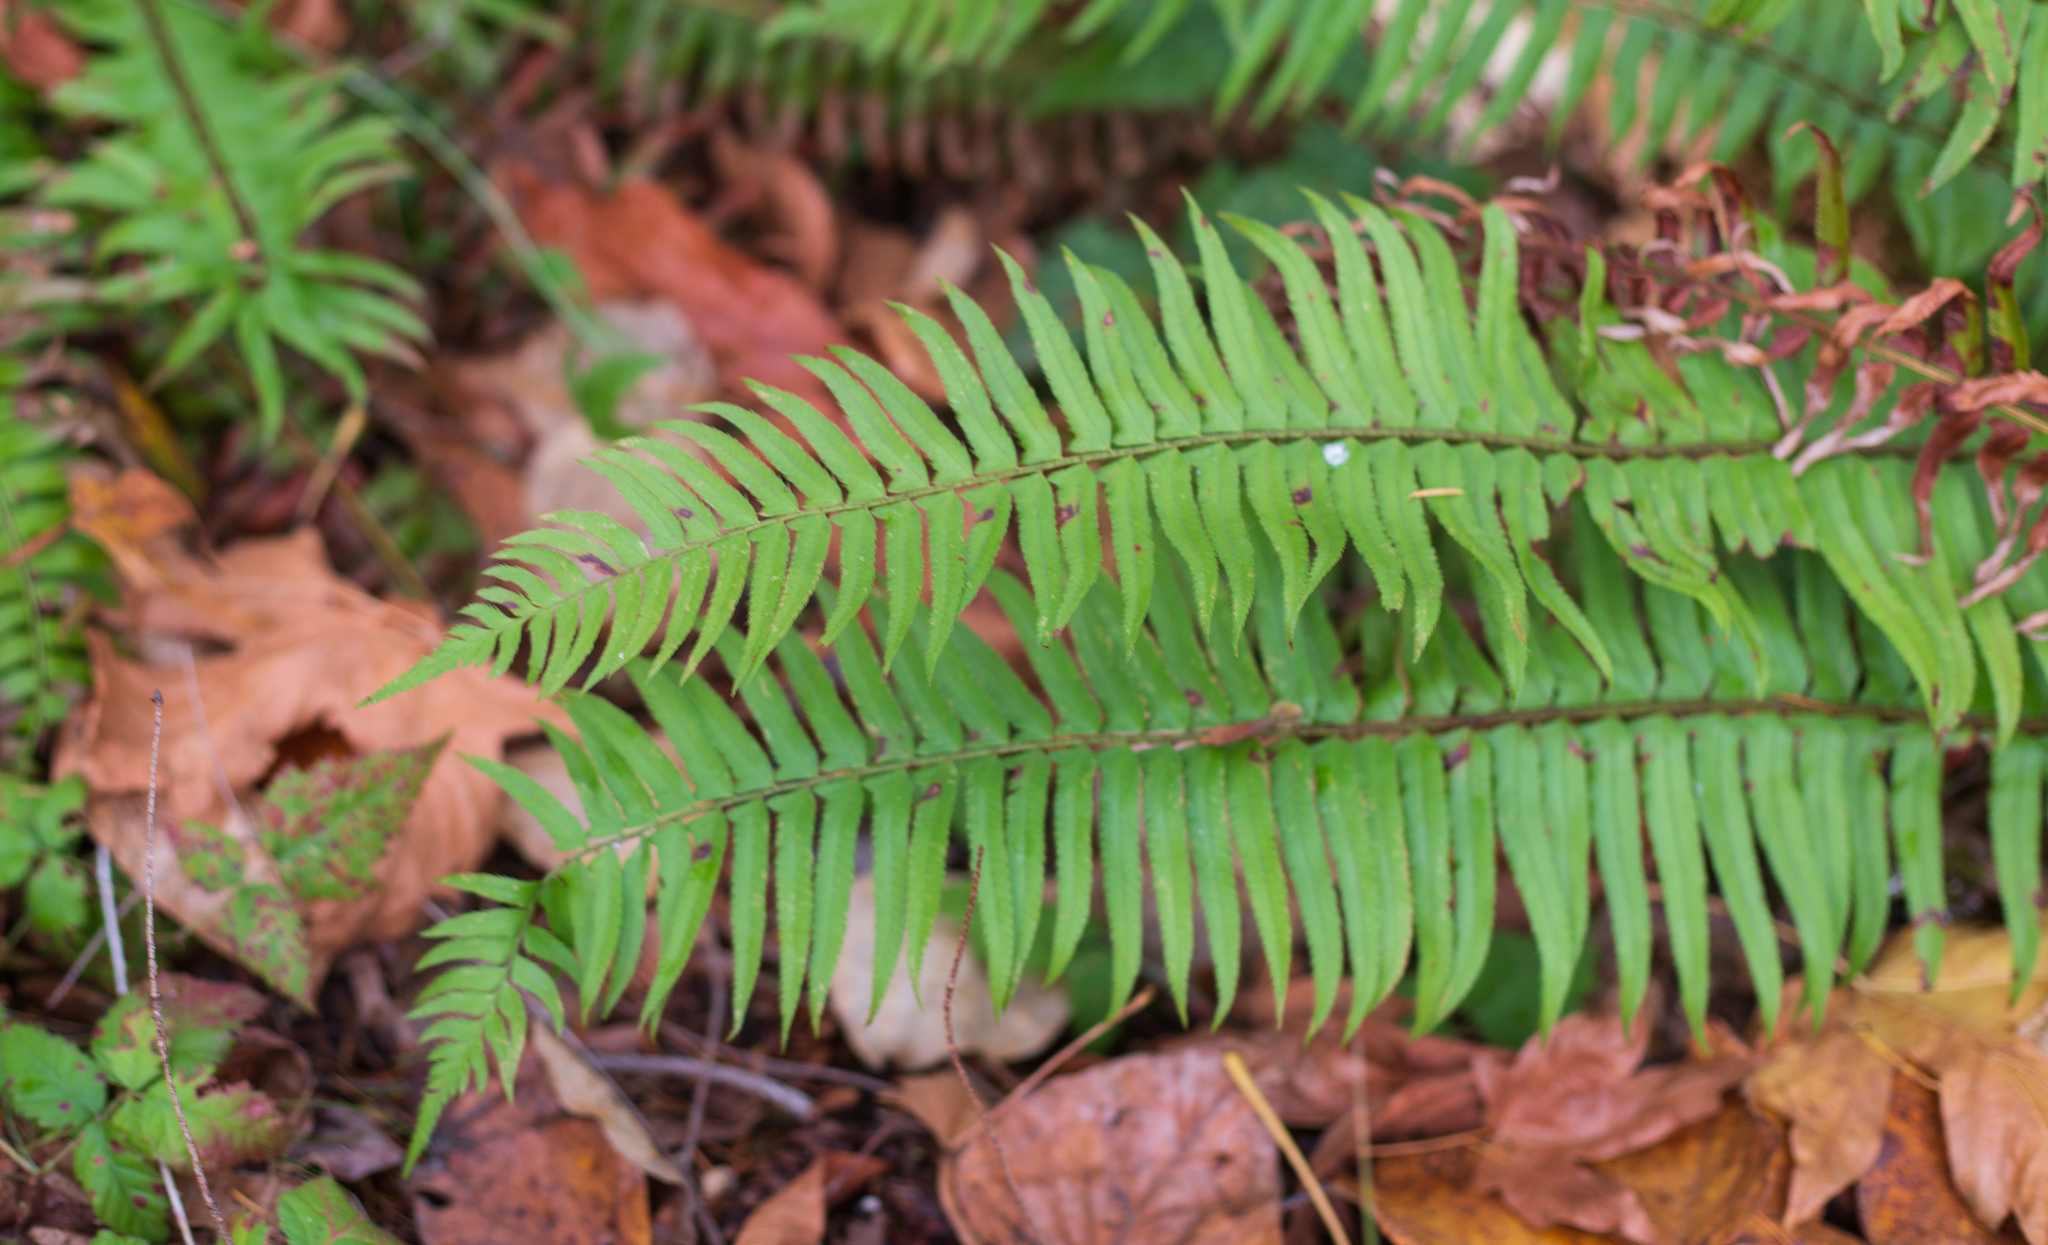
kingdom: Plantae
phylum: Tracheophyta
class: Polypodiopsida
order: Polypodiales
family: Dryopteridaceae
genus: Polystichum
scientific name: Polystichum munitum
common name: Western sword-fern
